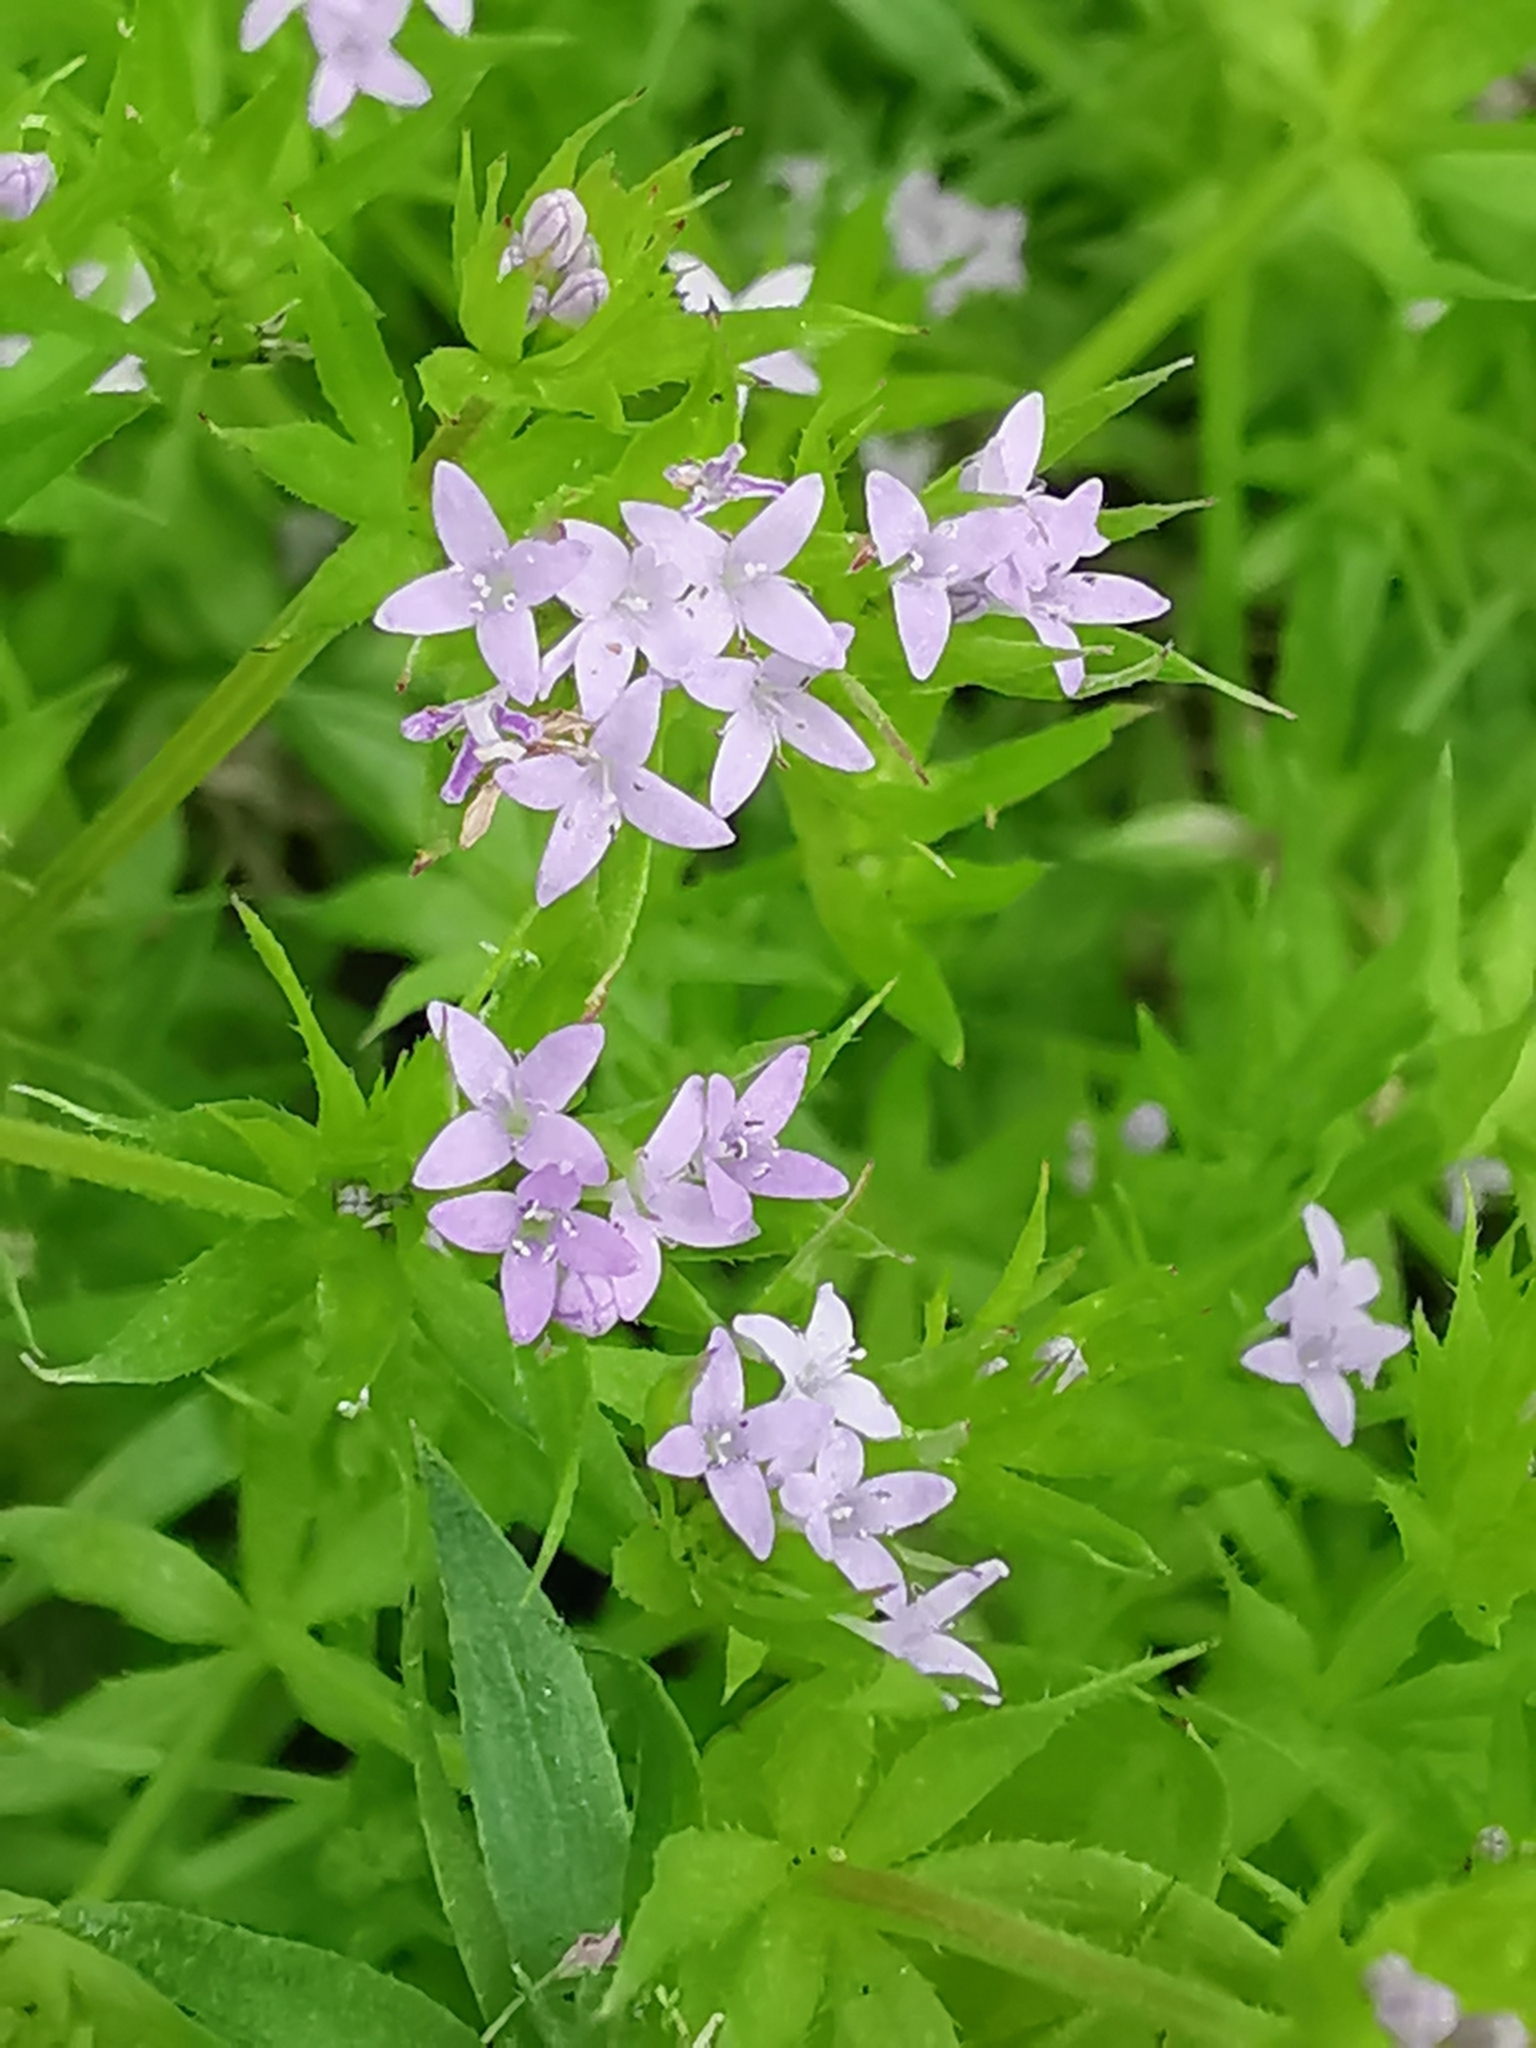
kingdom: Plantae
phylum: Tracheophyta
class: Magnoliopsida
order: Gentianales
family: Rubiaceae
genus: Sherardia
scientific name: Sherardia arvensis
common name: Field madder
